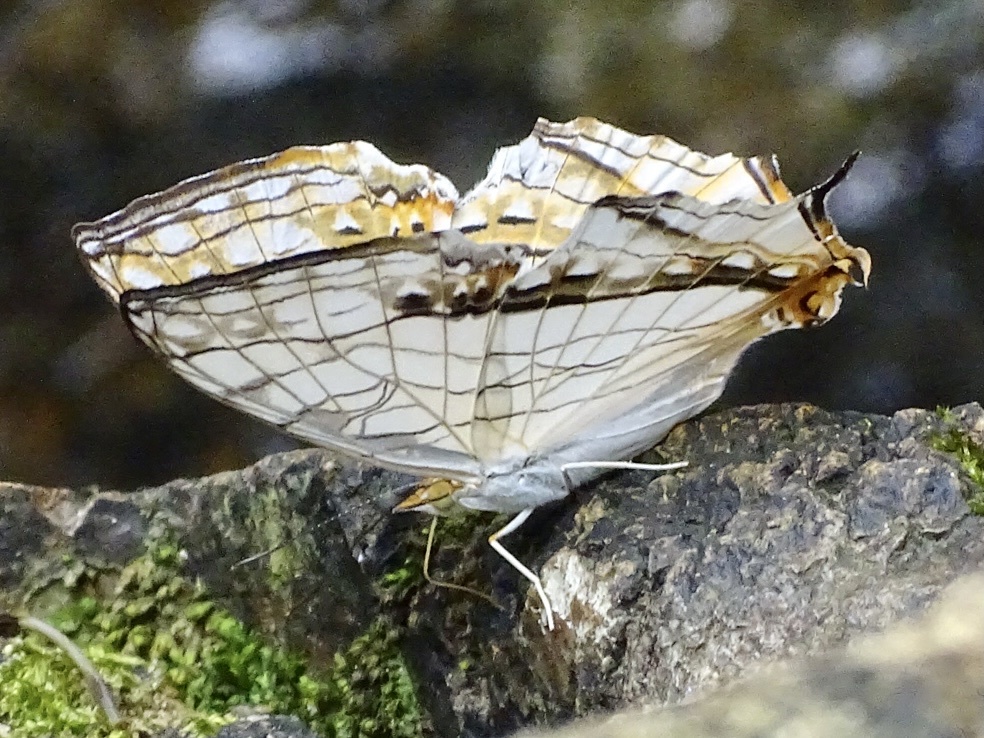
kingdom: Animalia
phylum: Arthropoda
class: Insecta
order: Lepidoptera
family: Nymphalidae
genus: Cyrestis
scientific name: Cyrestis thyodamas
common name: Common mapwing
